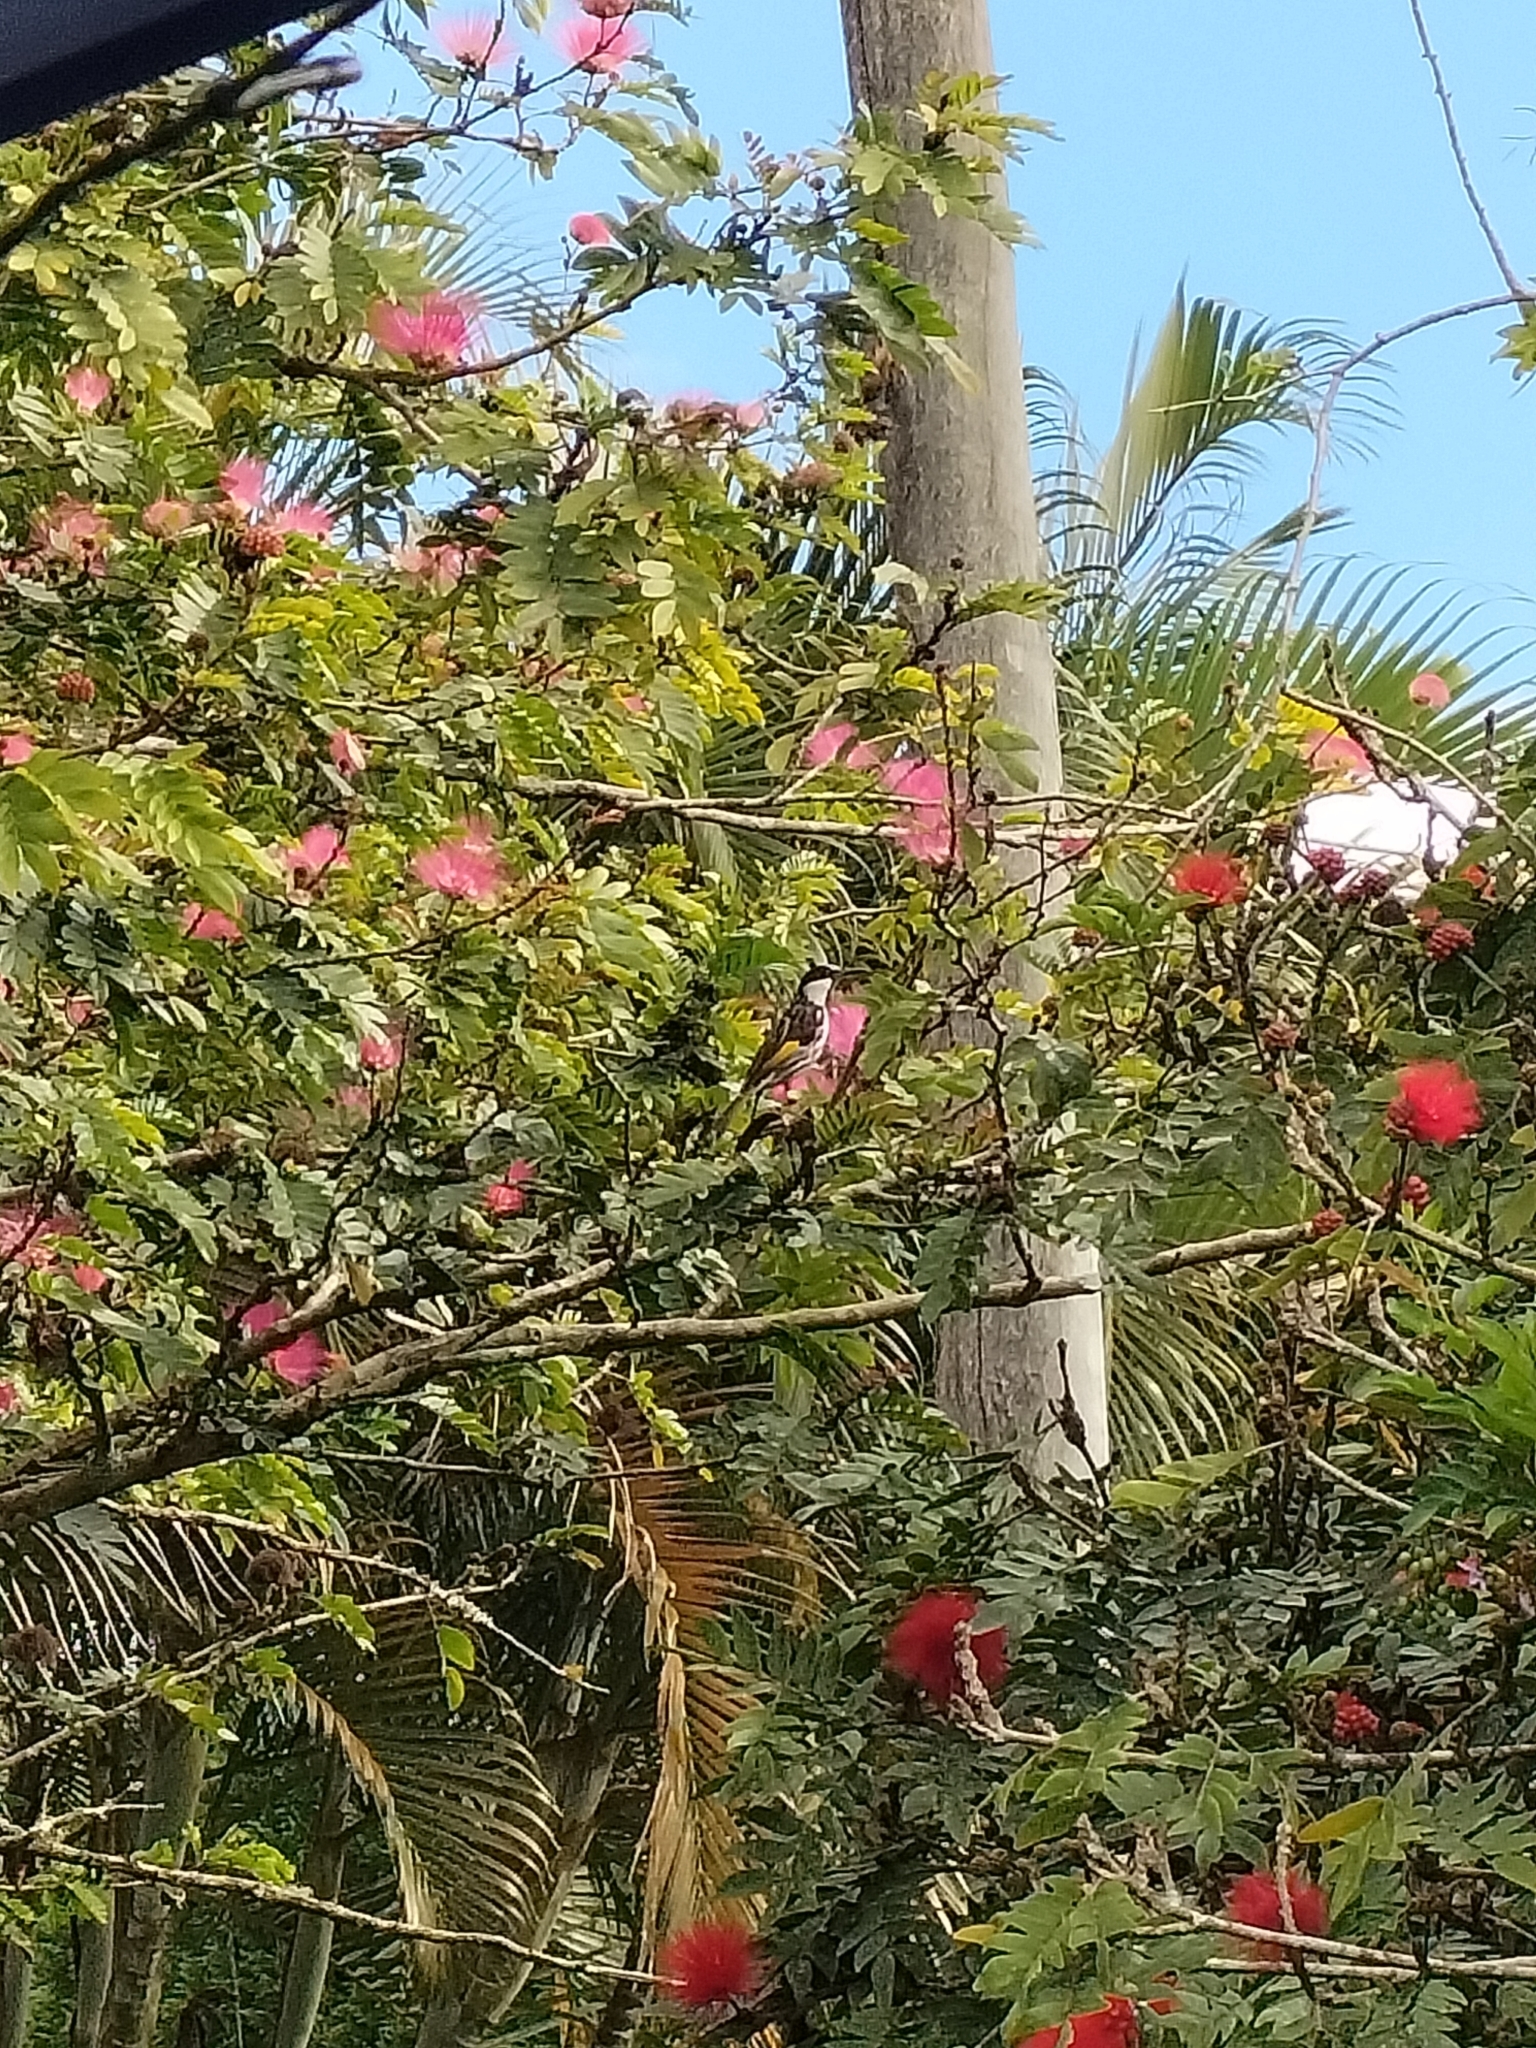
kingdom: Animalia
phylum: Chordata
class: Aves
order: Passeriformes
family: Meliphagidae
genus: Phylidonyris
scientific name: Phylidonyris niger
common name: White-cheeked honeyeater
